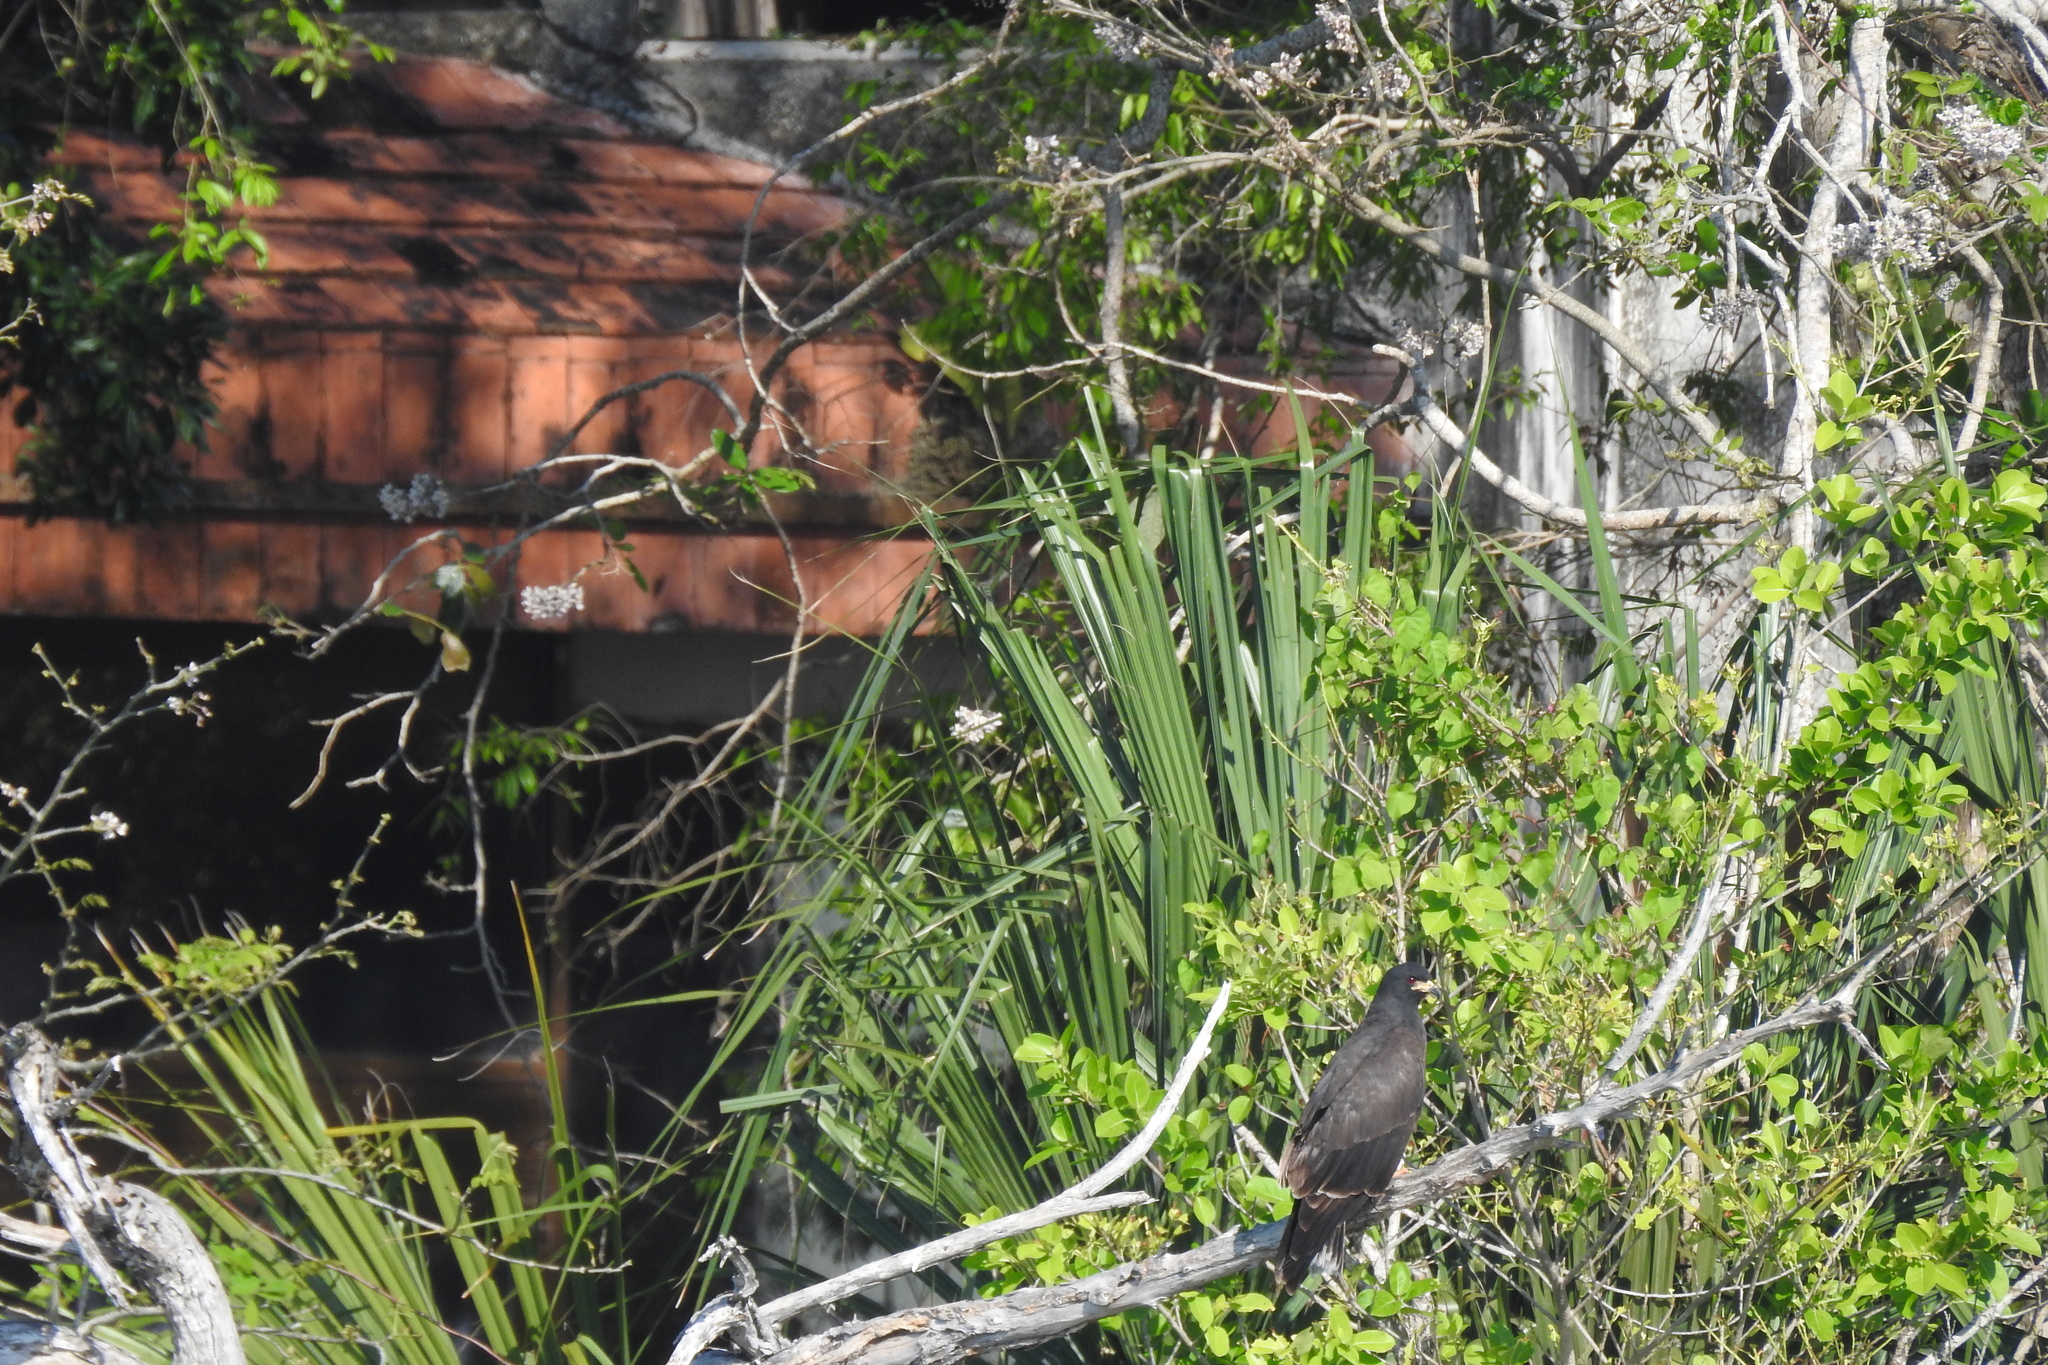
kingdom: Animalia
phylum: Chordata
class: Aves
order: Accipitriformes
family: Accipitridae
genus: Rostrhamus
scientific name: Rostrhamus sociabilis
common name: Snail kite
